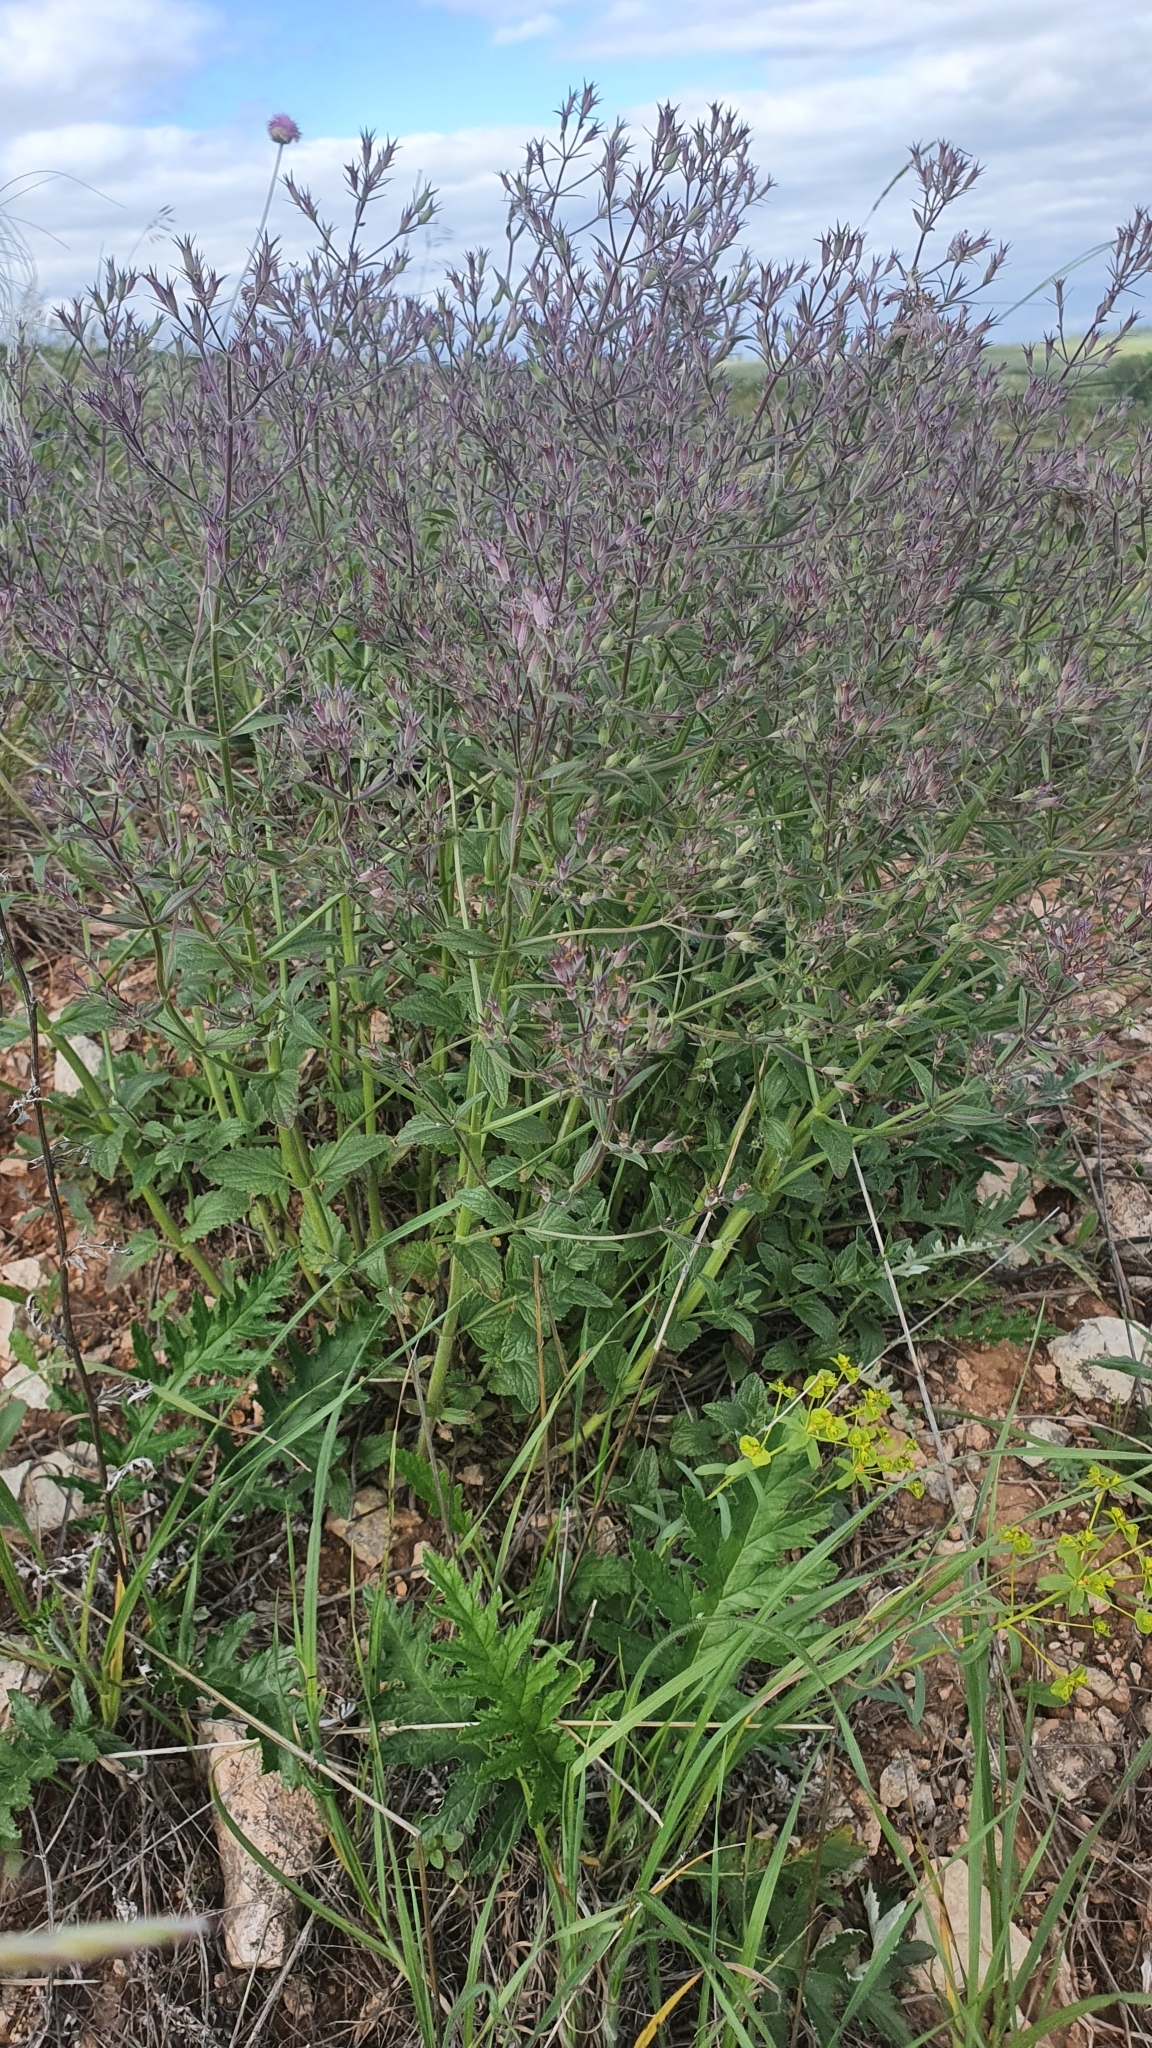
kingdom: Plantae
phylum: Tracheophyta
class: Magnoliopsida
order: Lamiales
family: Lamiaceae
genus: Nepeta
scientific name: Nepeta ucranica
